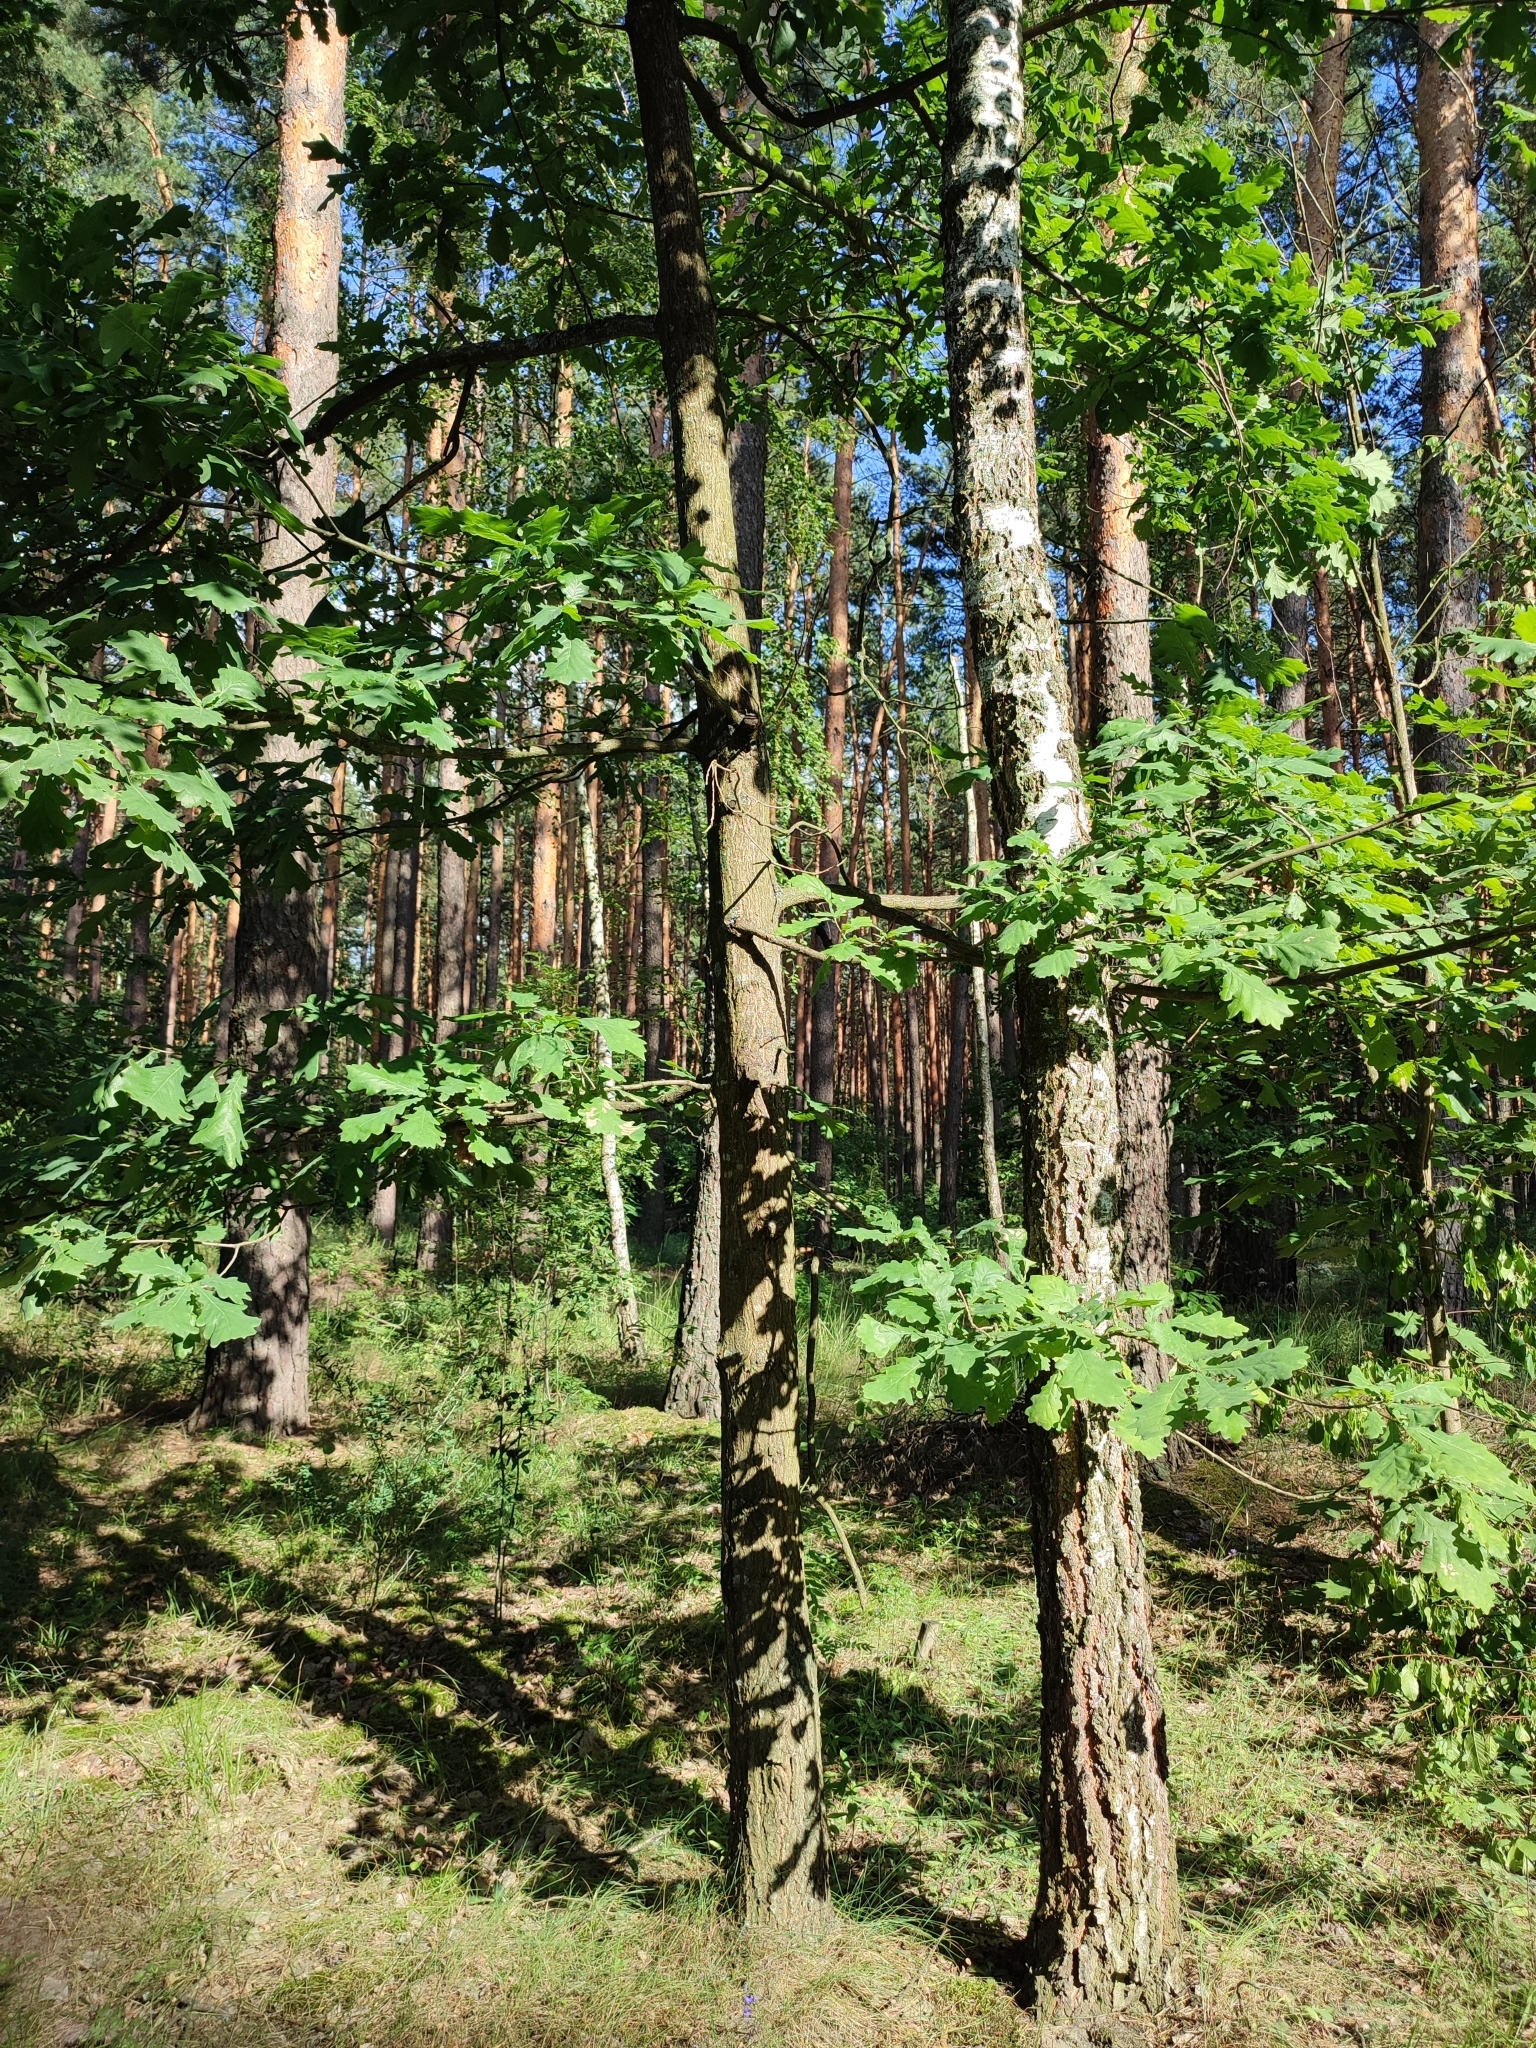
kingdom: Plantae
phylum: Tracheophyta
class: Magnoliopsida
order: Fagales
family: Fagaceae
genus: Quercus
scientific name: Quercus robur
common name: Pedunculate oak
